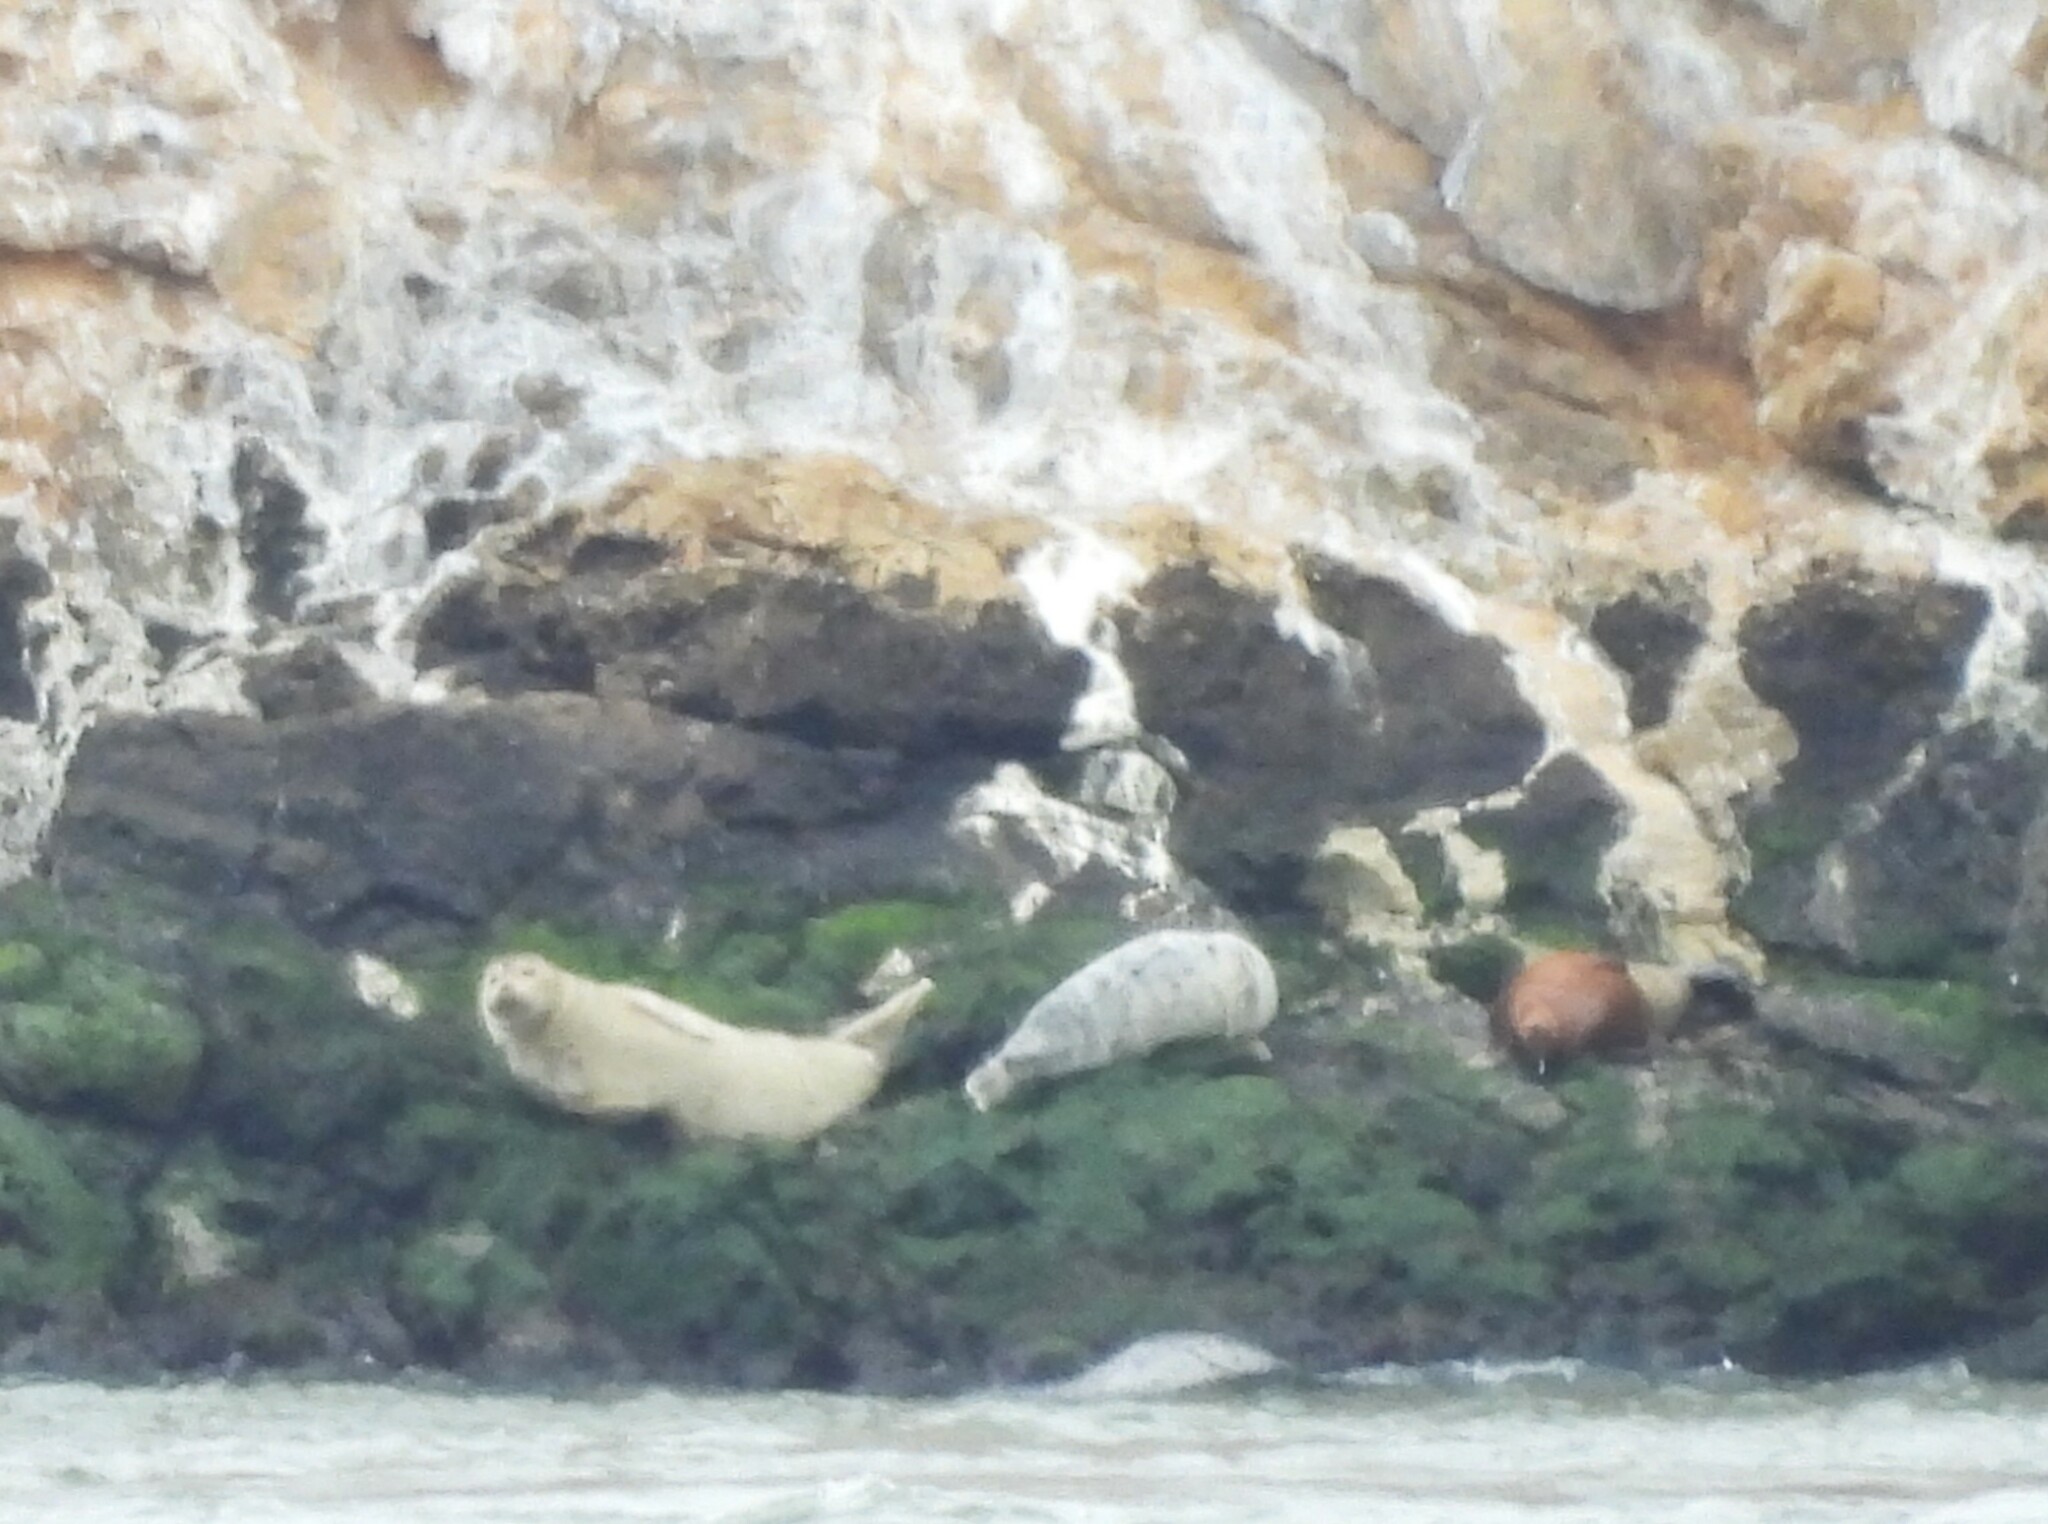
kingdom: Animalia
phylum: Chordata
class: Mammalia
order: Carnivora
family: Phocidae
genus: Phoca
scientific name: Phoca vitulina
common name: Harbor seal
